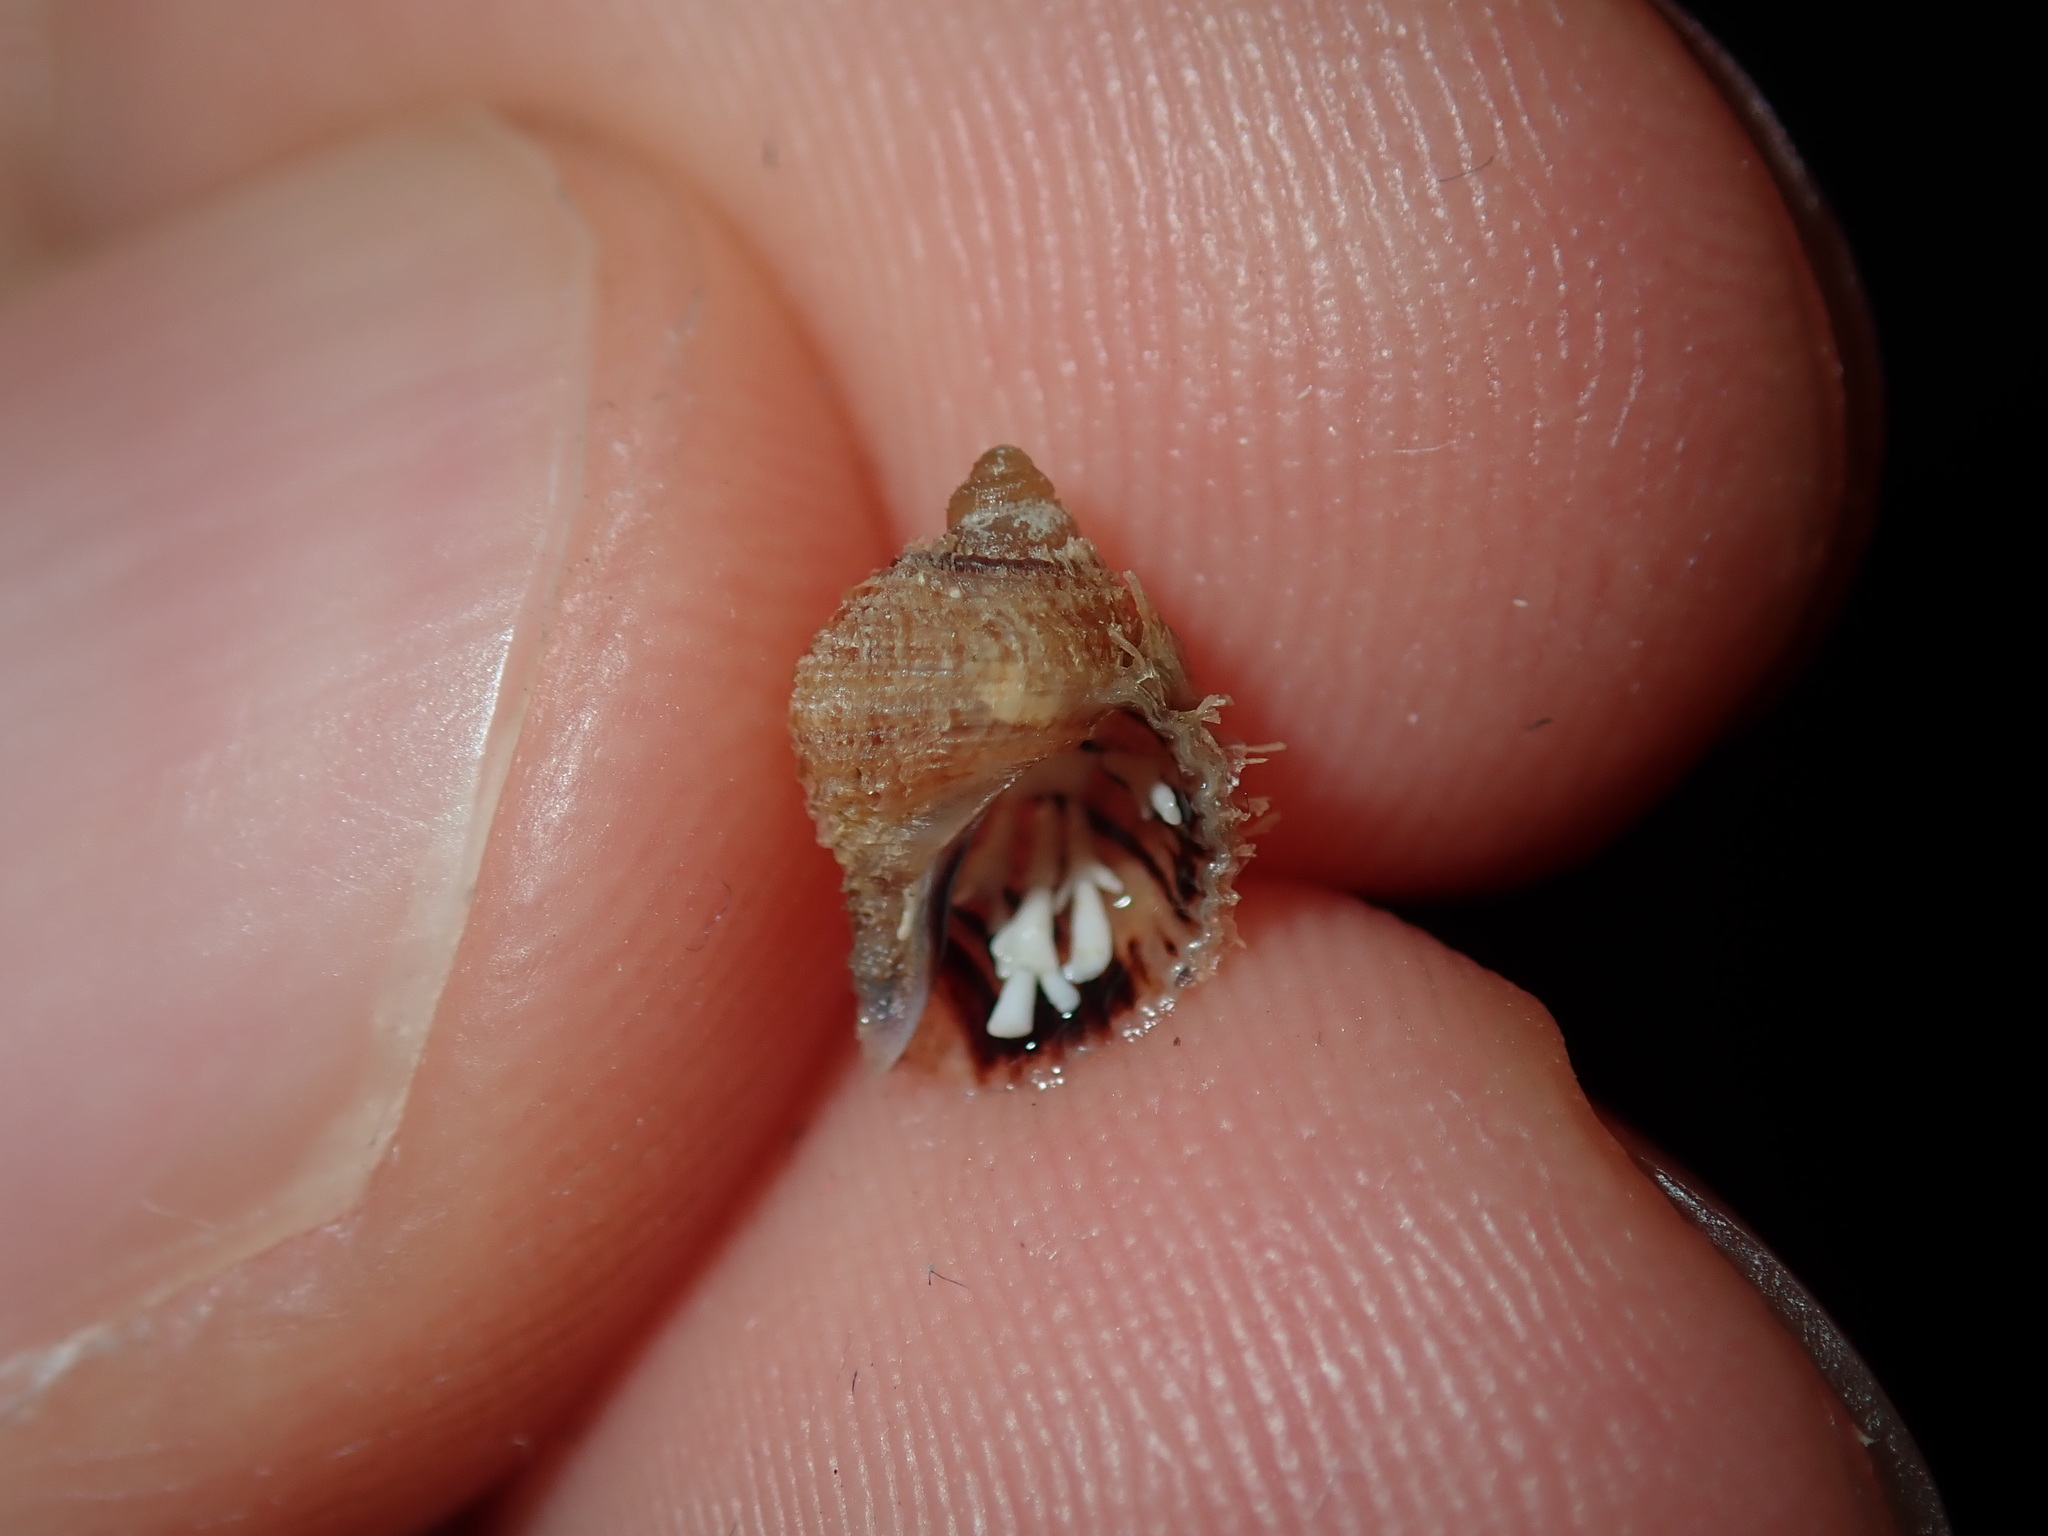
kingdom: Animalia
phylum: Mollusca
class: Gastropoda
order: Littorinimorpha
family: Cymatiidae
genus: Cabestana
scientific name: Cabestana spengleri
